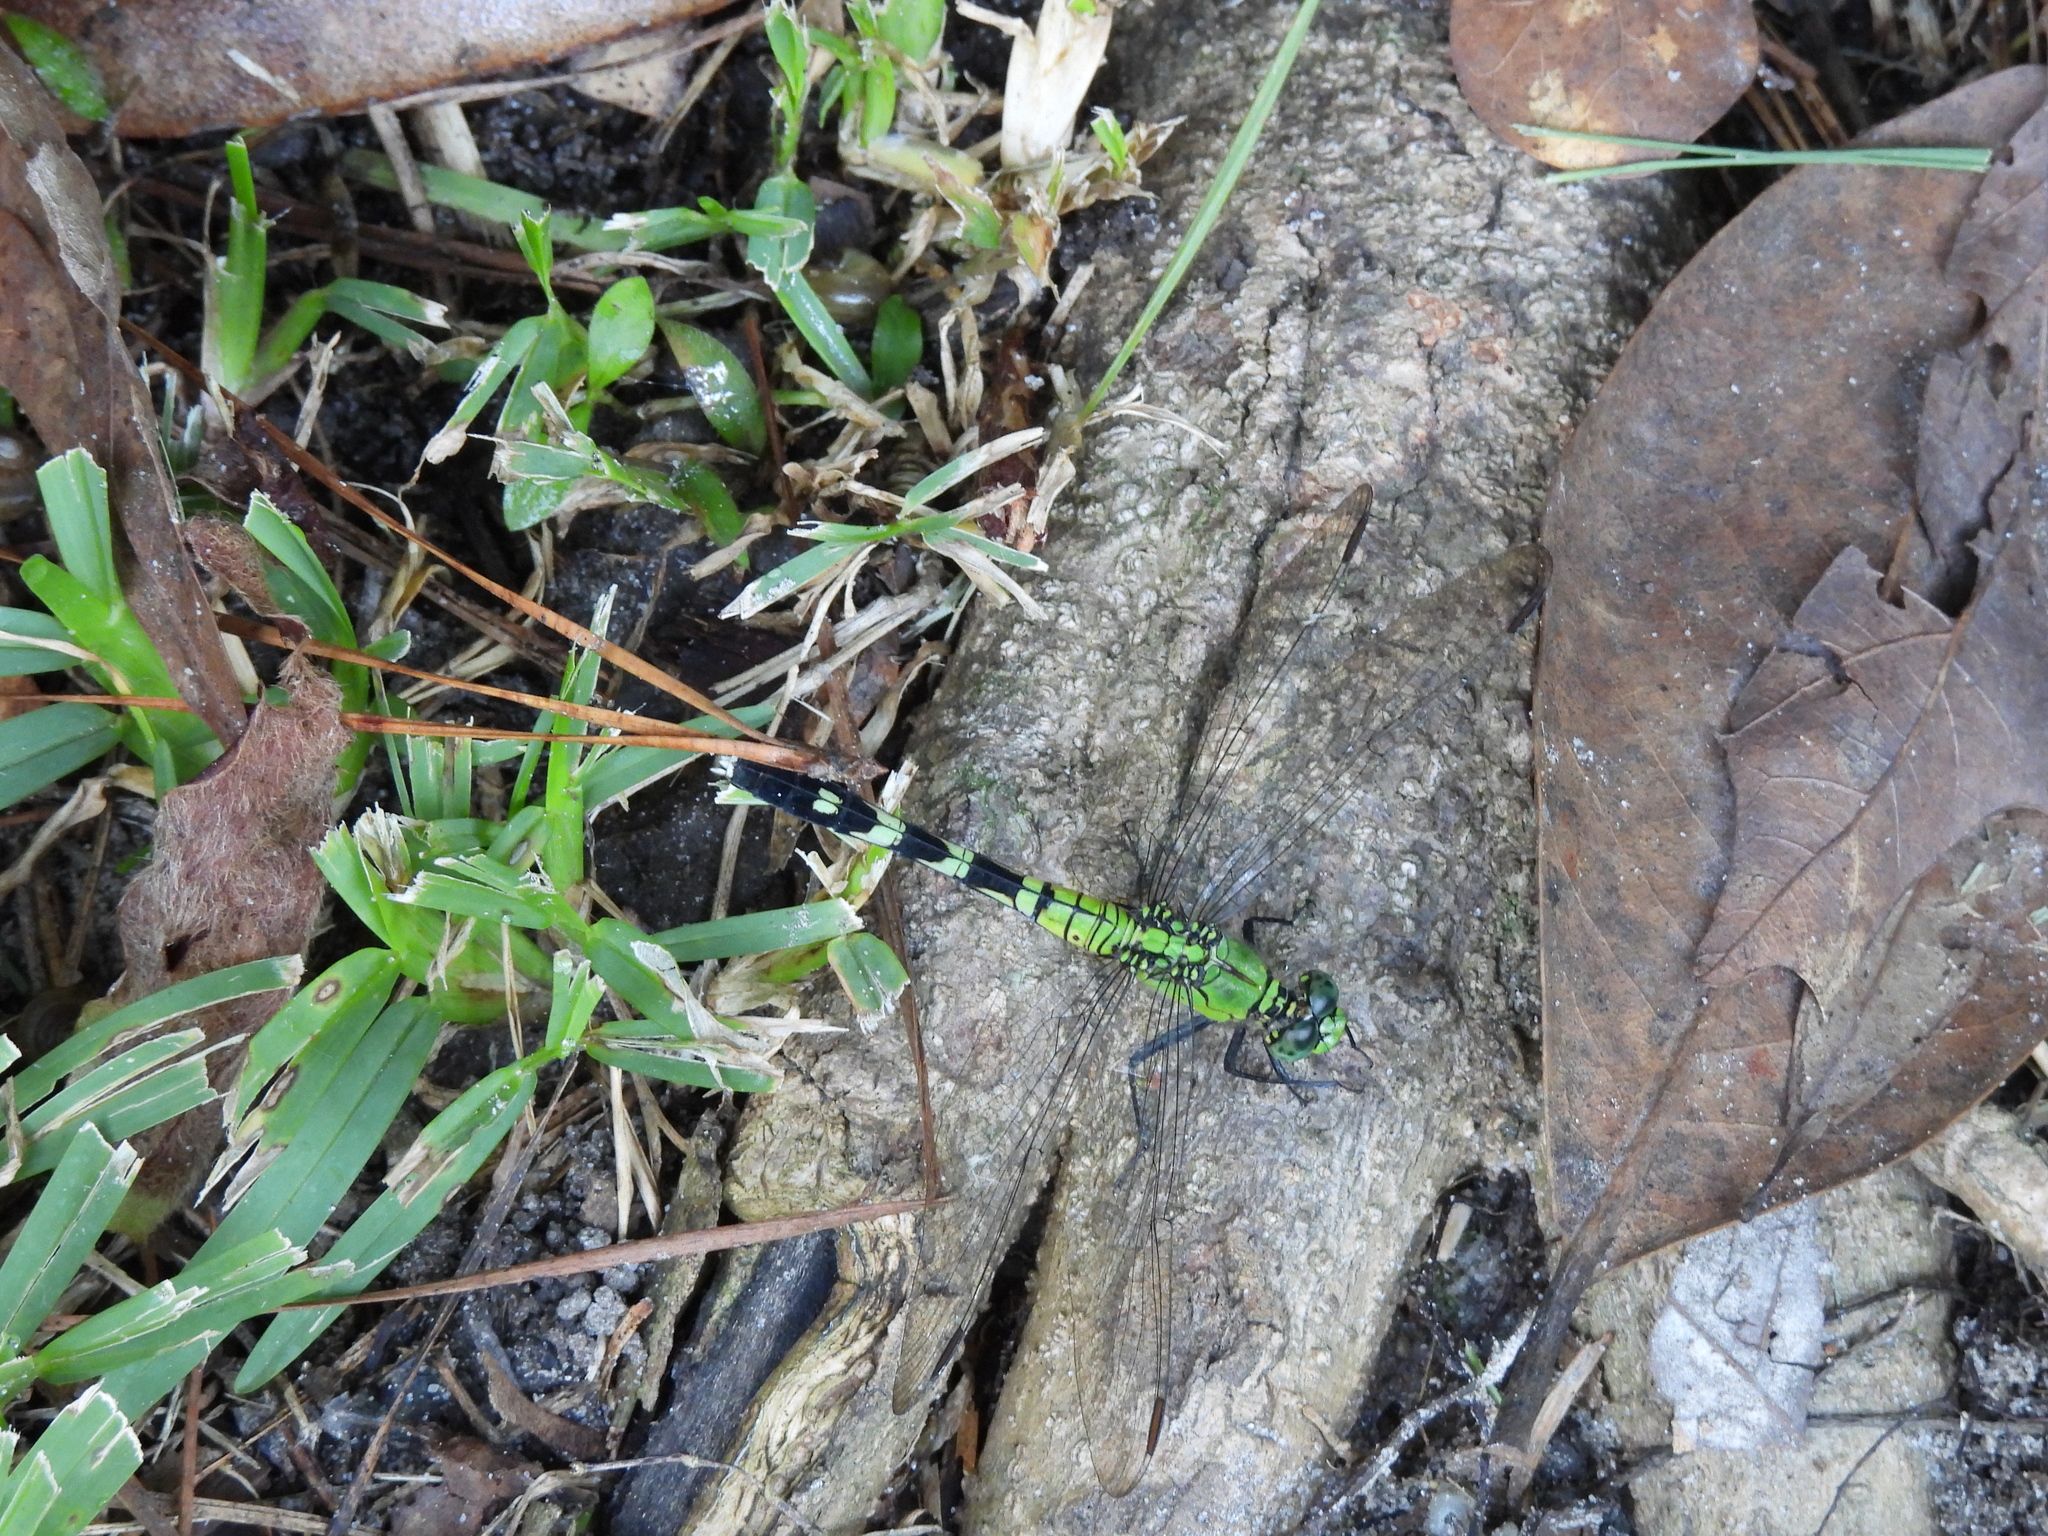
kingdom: Animalia
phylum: Arthropoda
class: Insecta
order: Odonata
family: Libellulidae
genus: Erythemis
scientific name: Erythemis simplicicollis
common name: Eastern pondhawk
